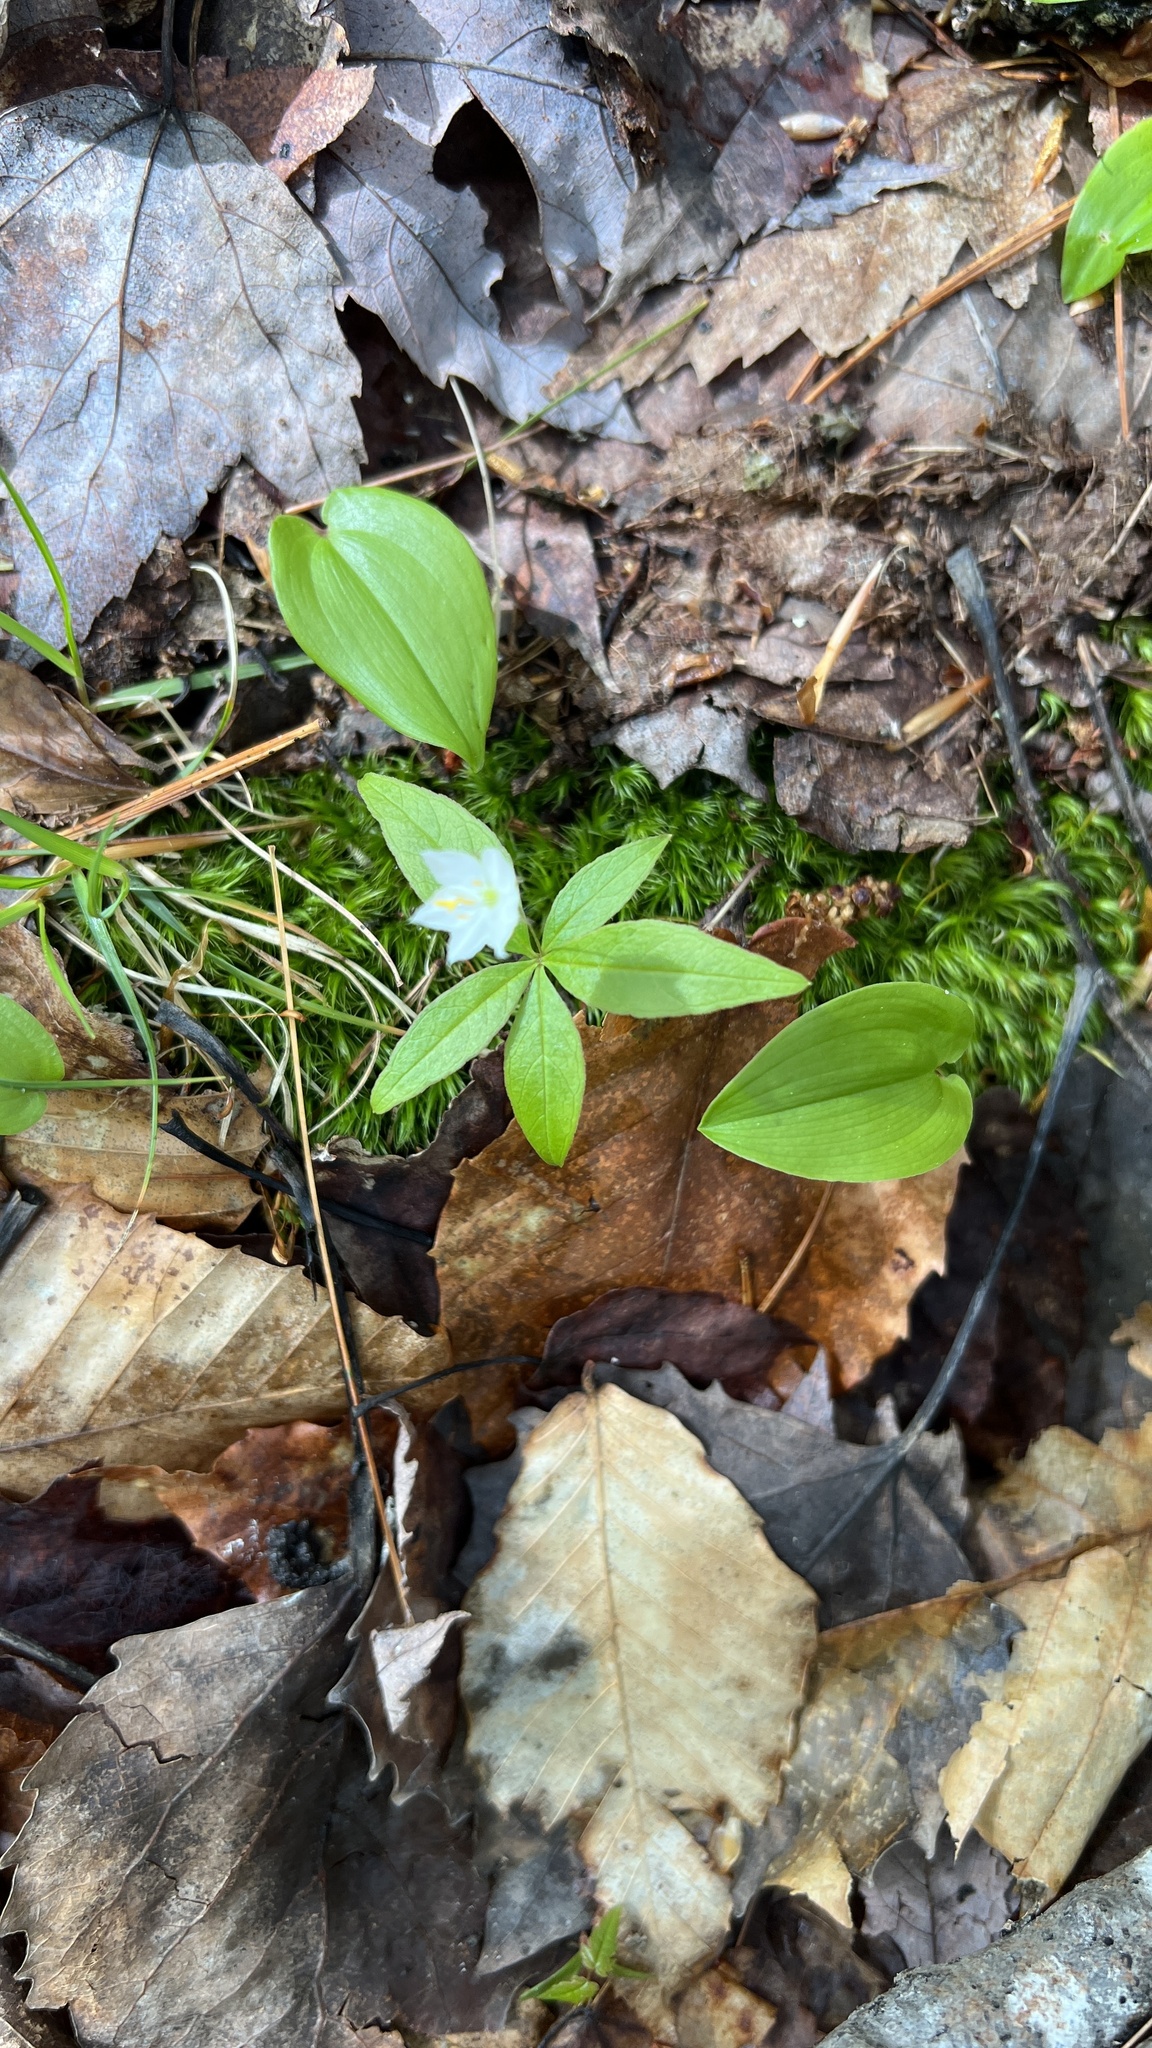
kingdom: Plantae
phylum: Tracheophyta
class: Magnoliopsida
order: Ericales
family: Primulaceae
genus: Lysimachia
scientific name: Lysimachia borealis
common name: American starflower
